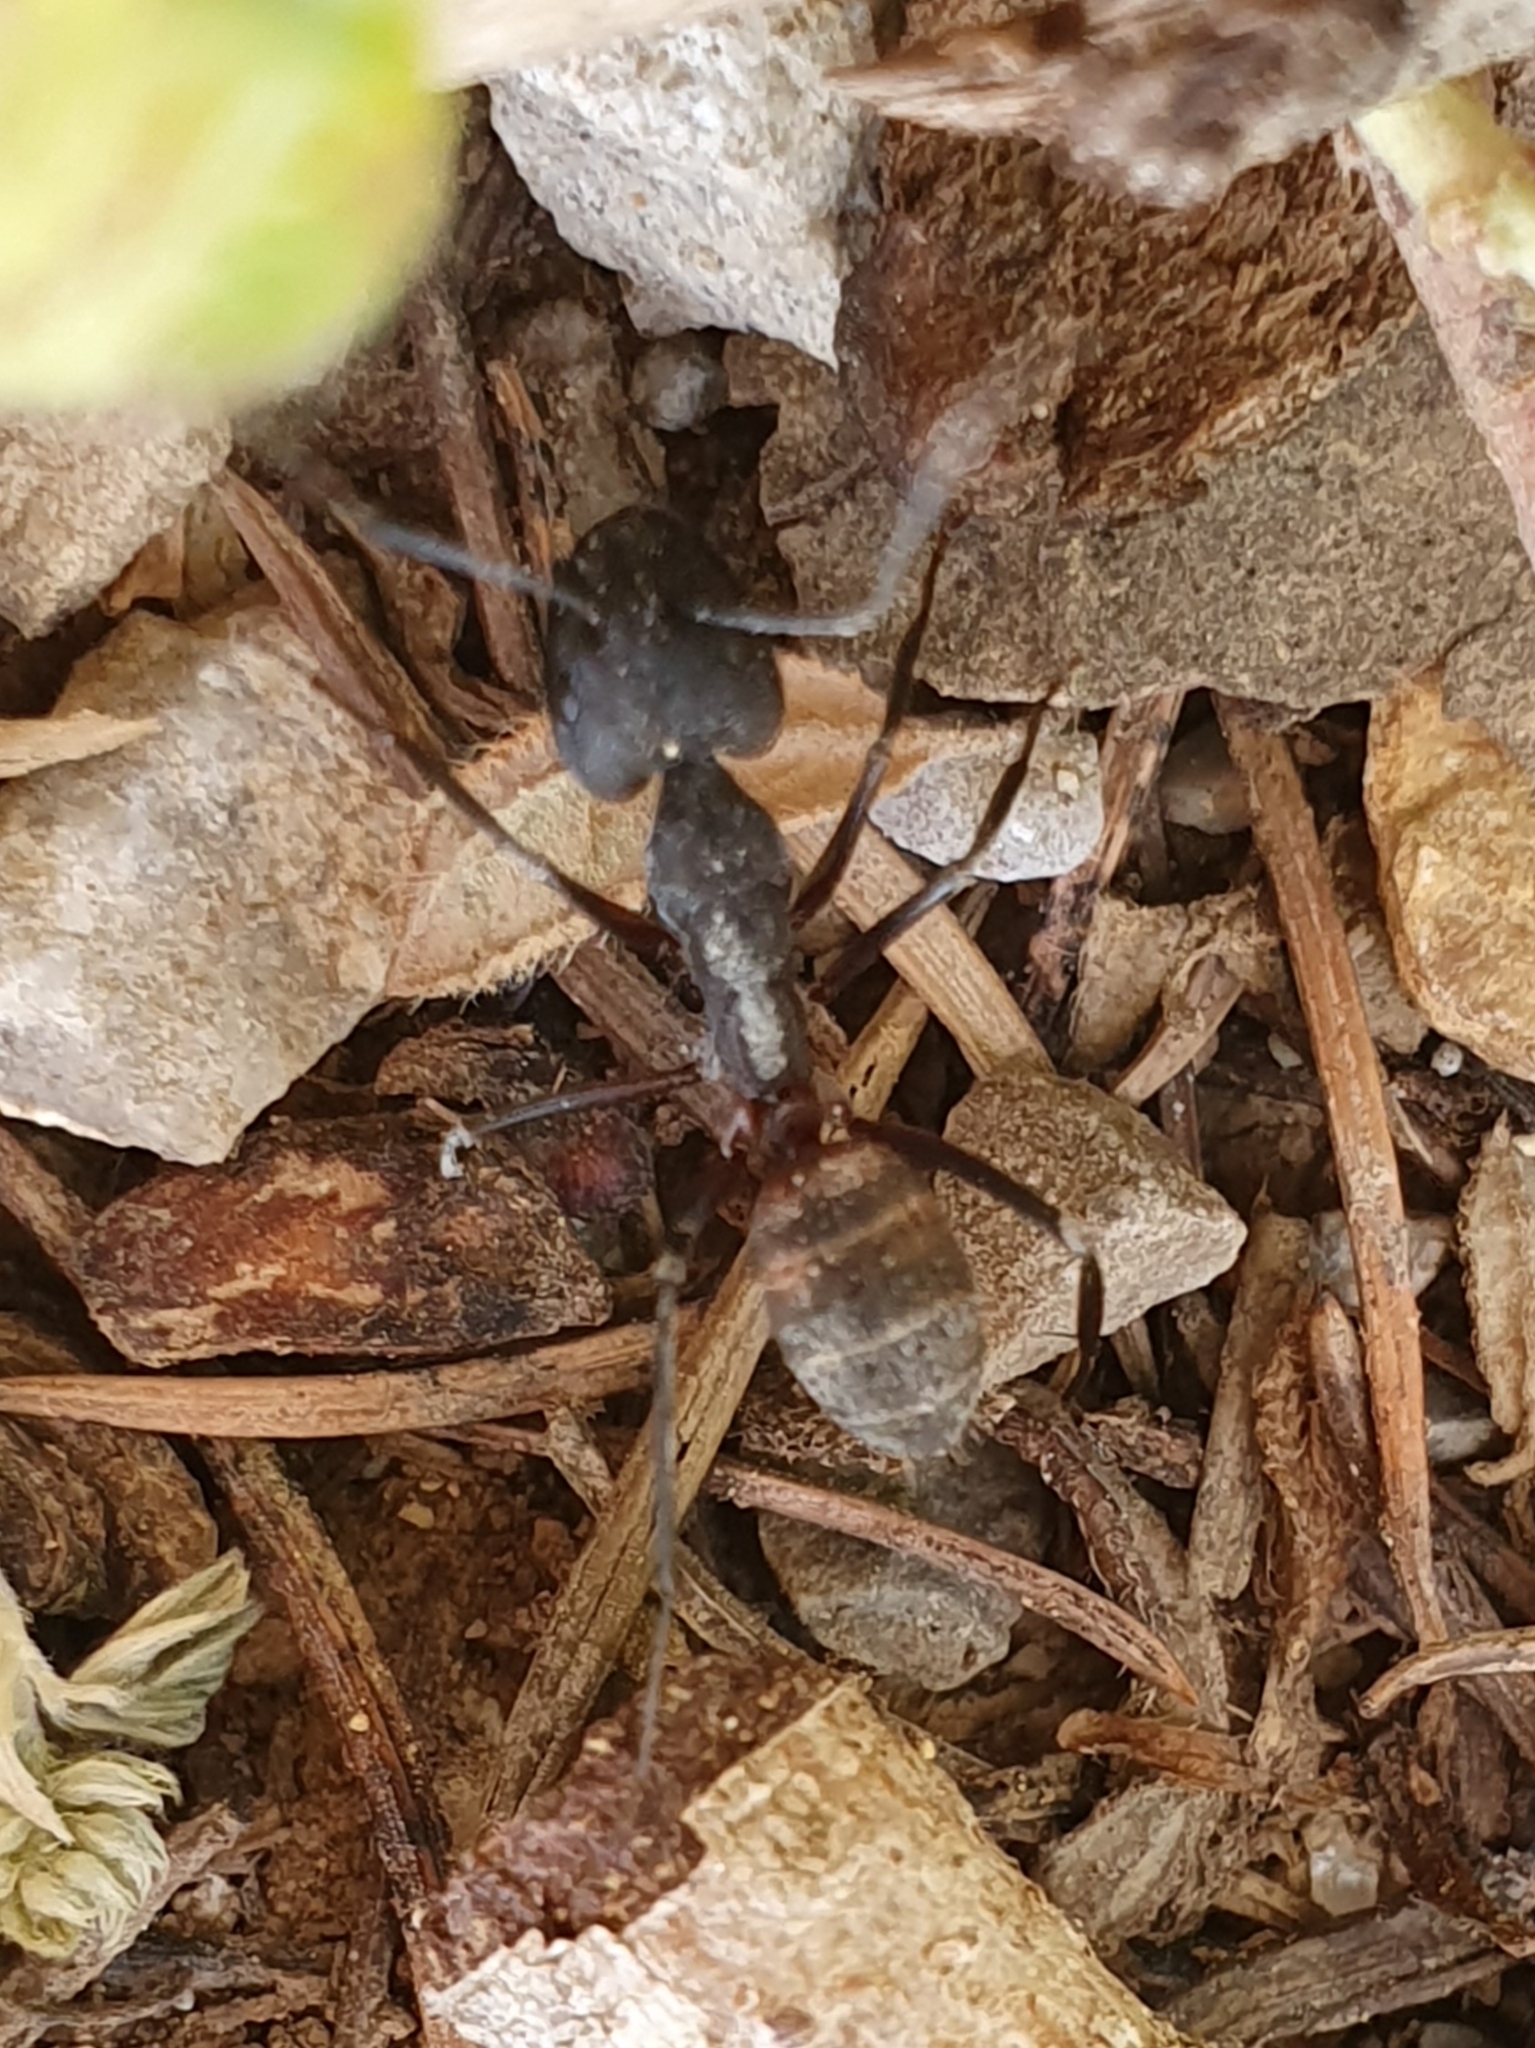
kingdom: Animalia
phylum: Arthropoda
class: Insecta
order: Hymenoptera
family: Formicidae
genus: Camponotus
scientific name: Camponotus cruentatus
